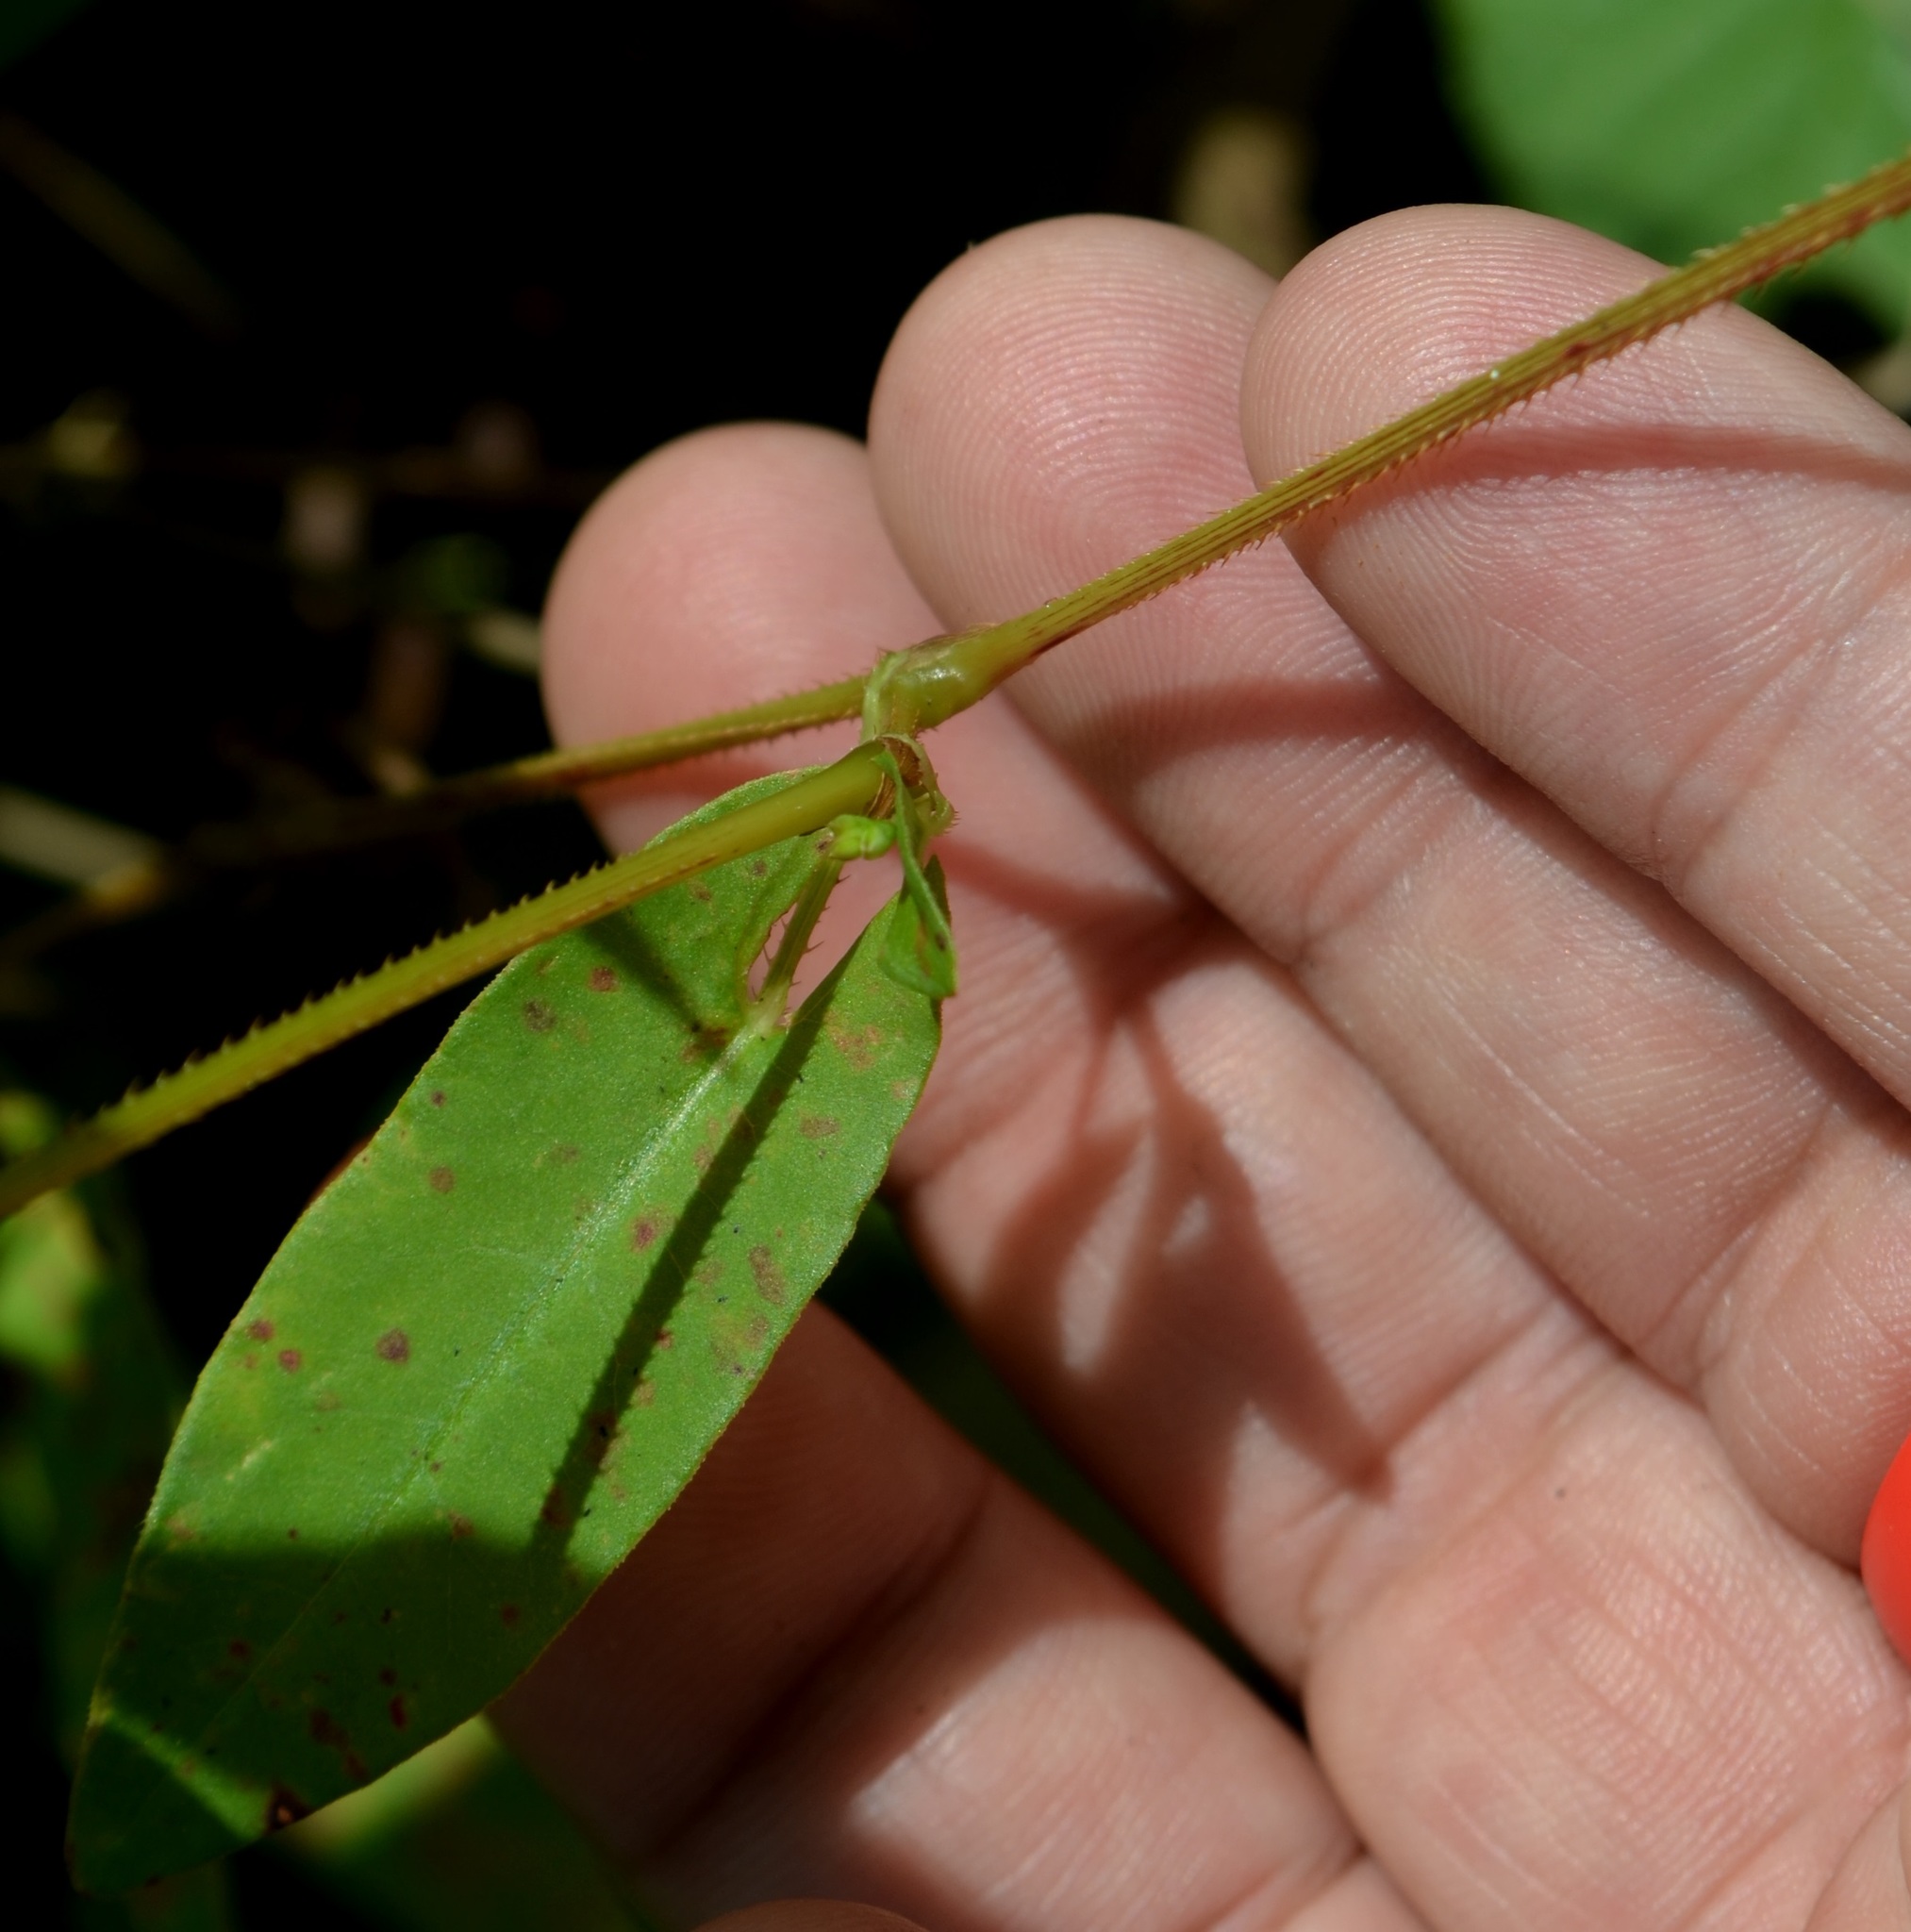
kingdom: Plantae
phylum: Tracheophyta
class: Magnoliopsida
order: Caryophyllales
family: Polygonaceae
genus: Persicaria
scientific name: Persicaria sagittata
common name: American tearthumb
